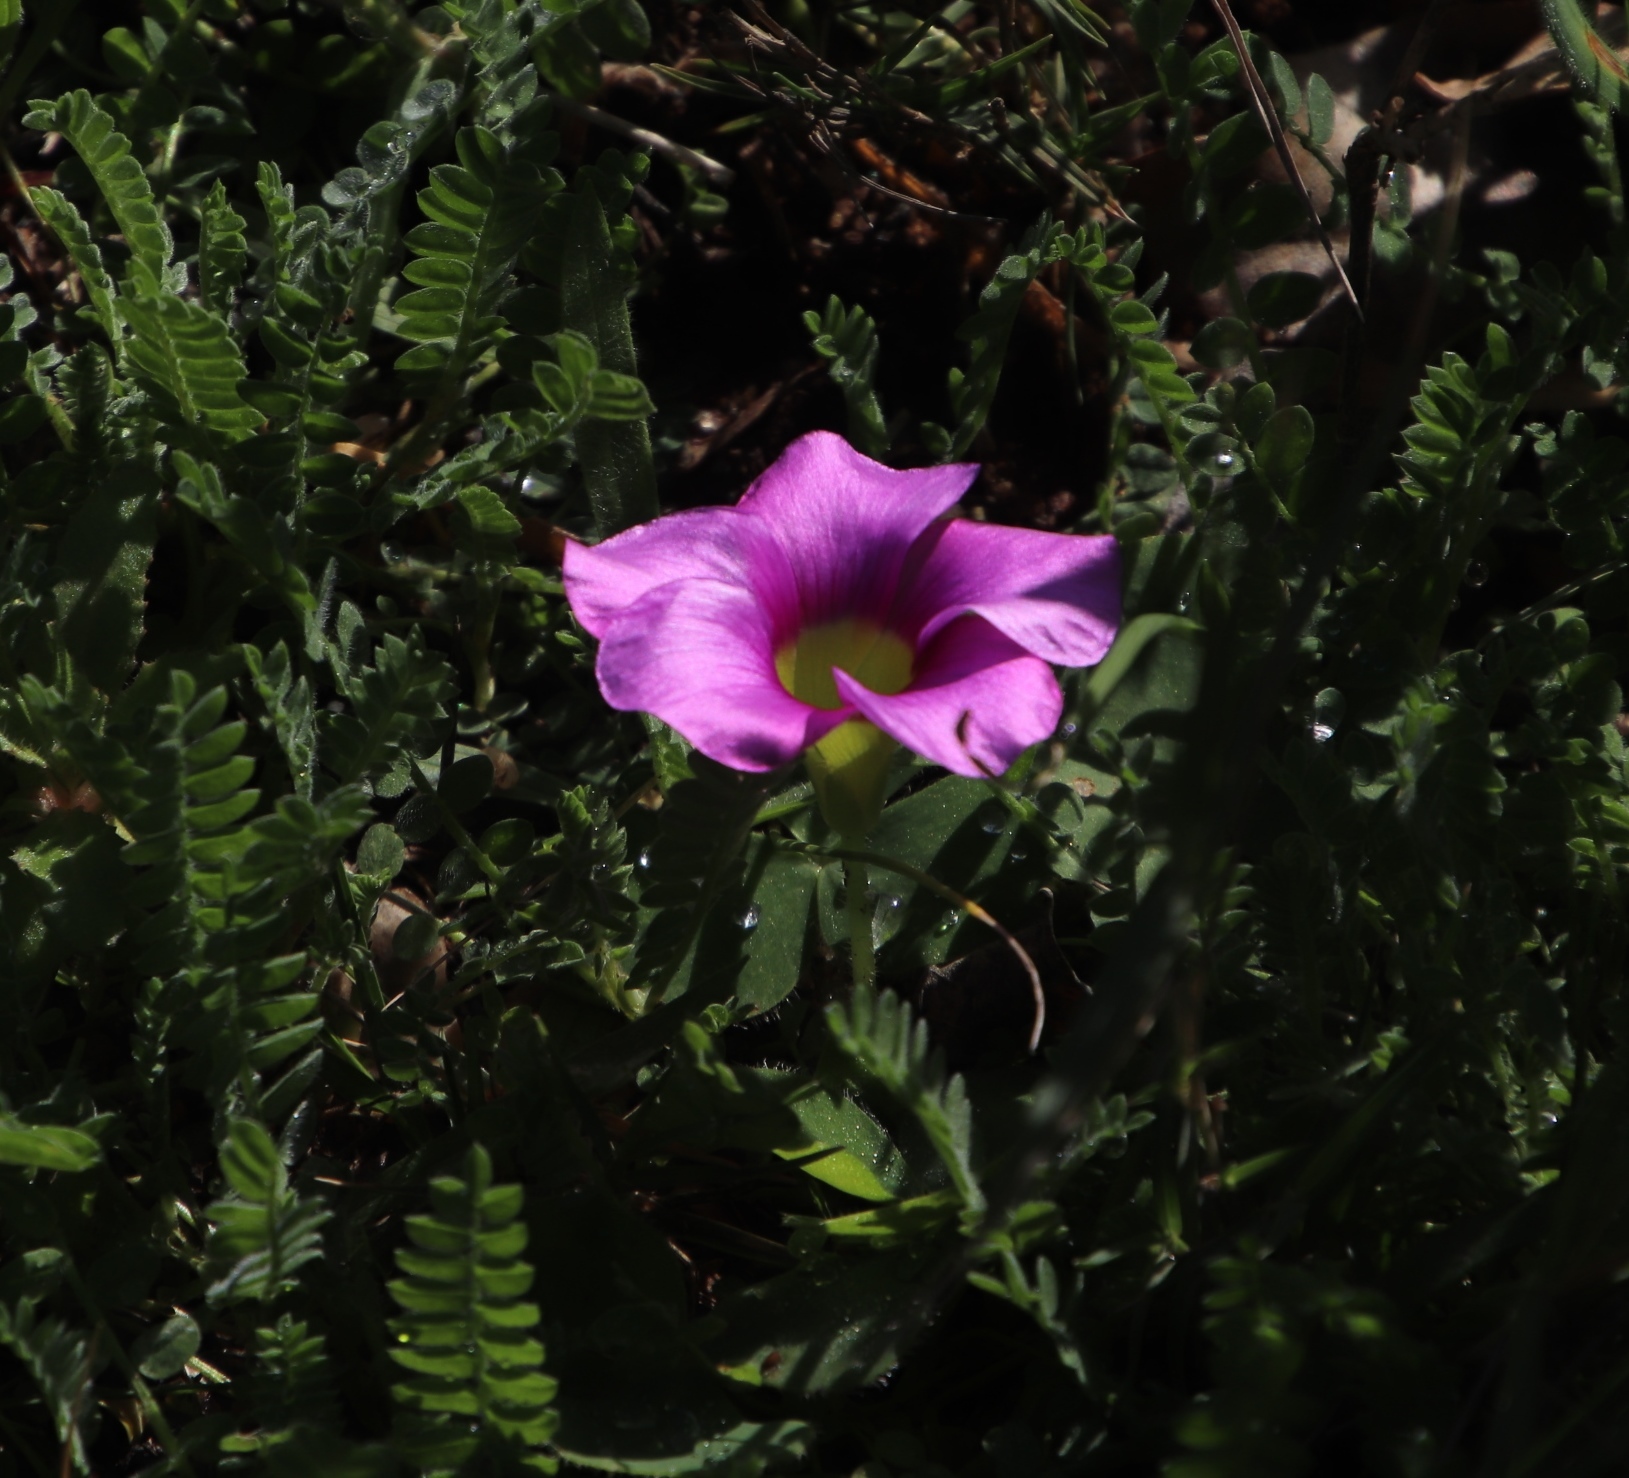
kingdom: Plantae
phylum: Tracheophyta
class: Magnoliopsida
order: Oxalidales
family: Oxalidaceae
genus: Oxalis
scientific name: Oxalis purpurea
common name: Purple woodsorrel
